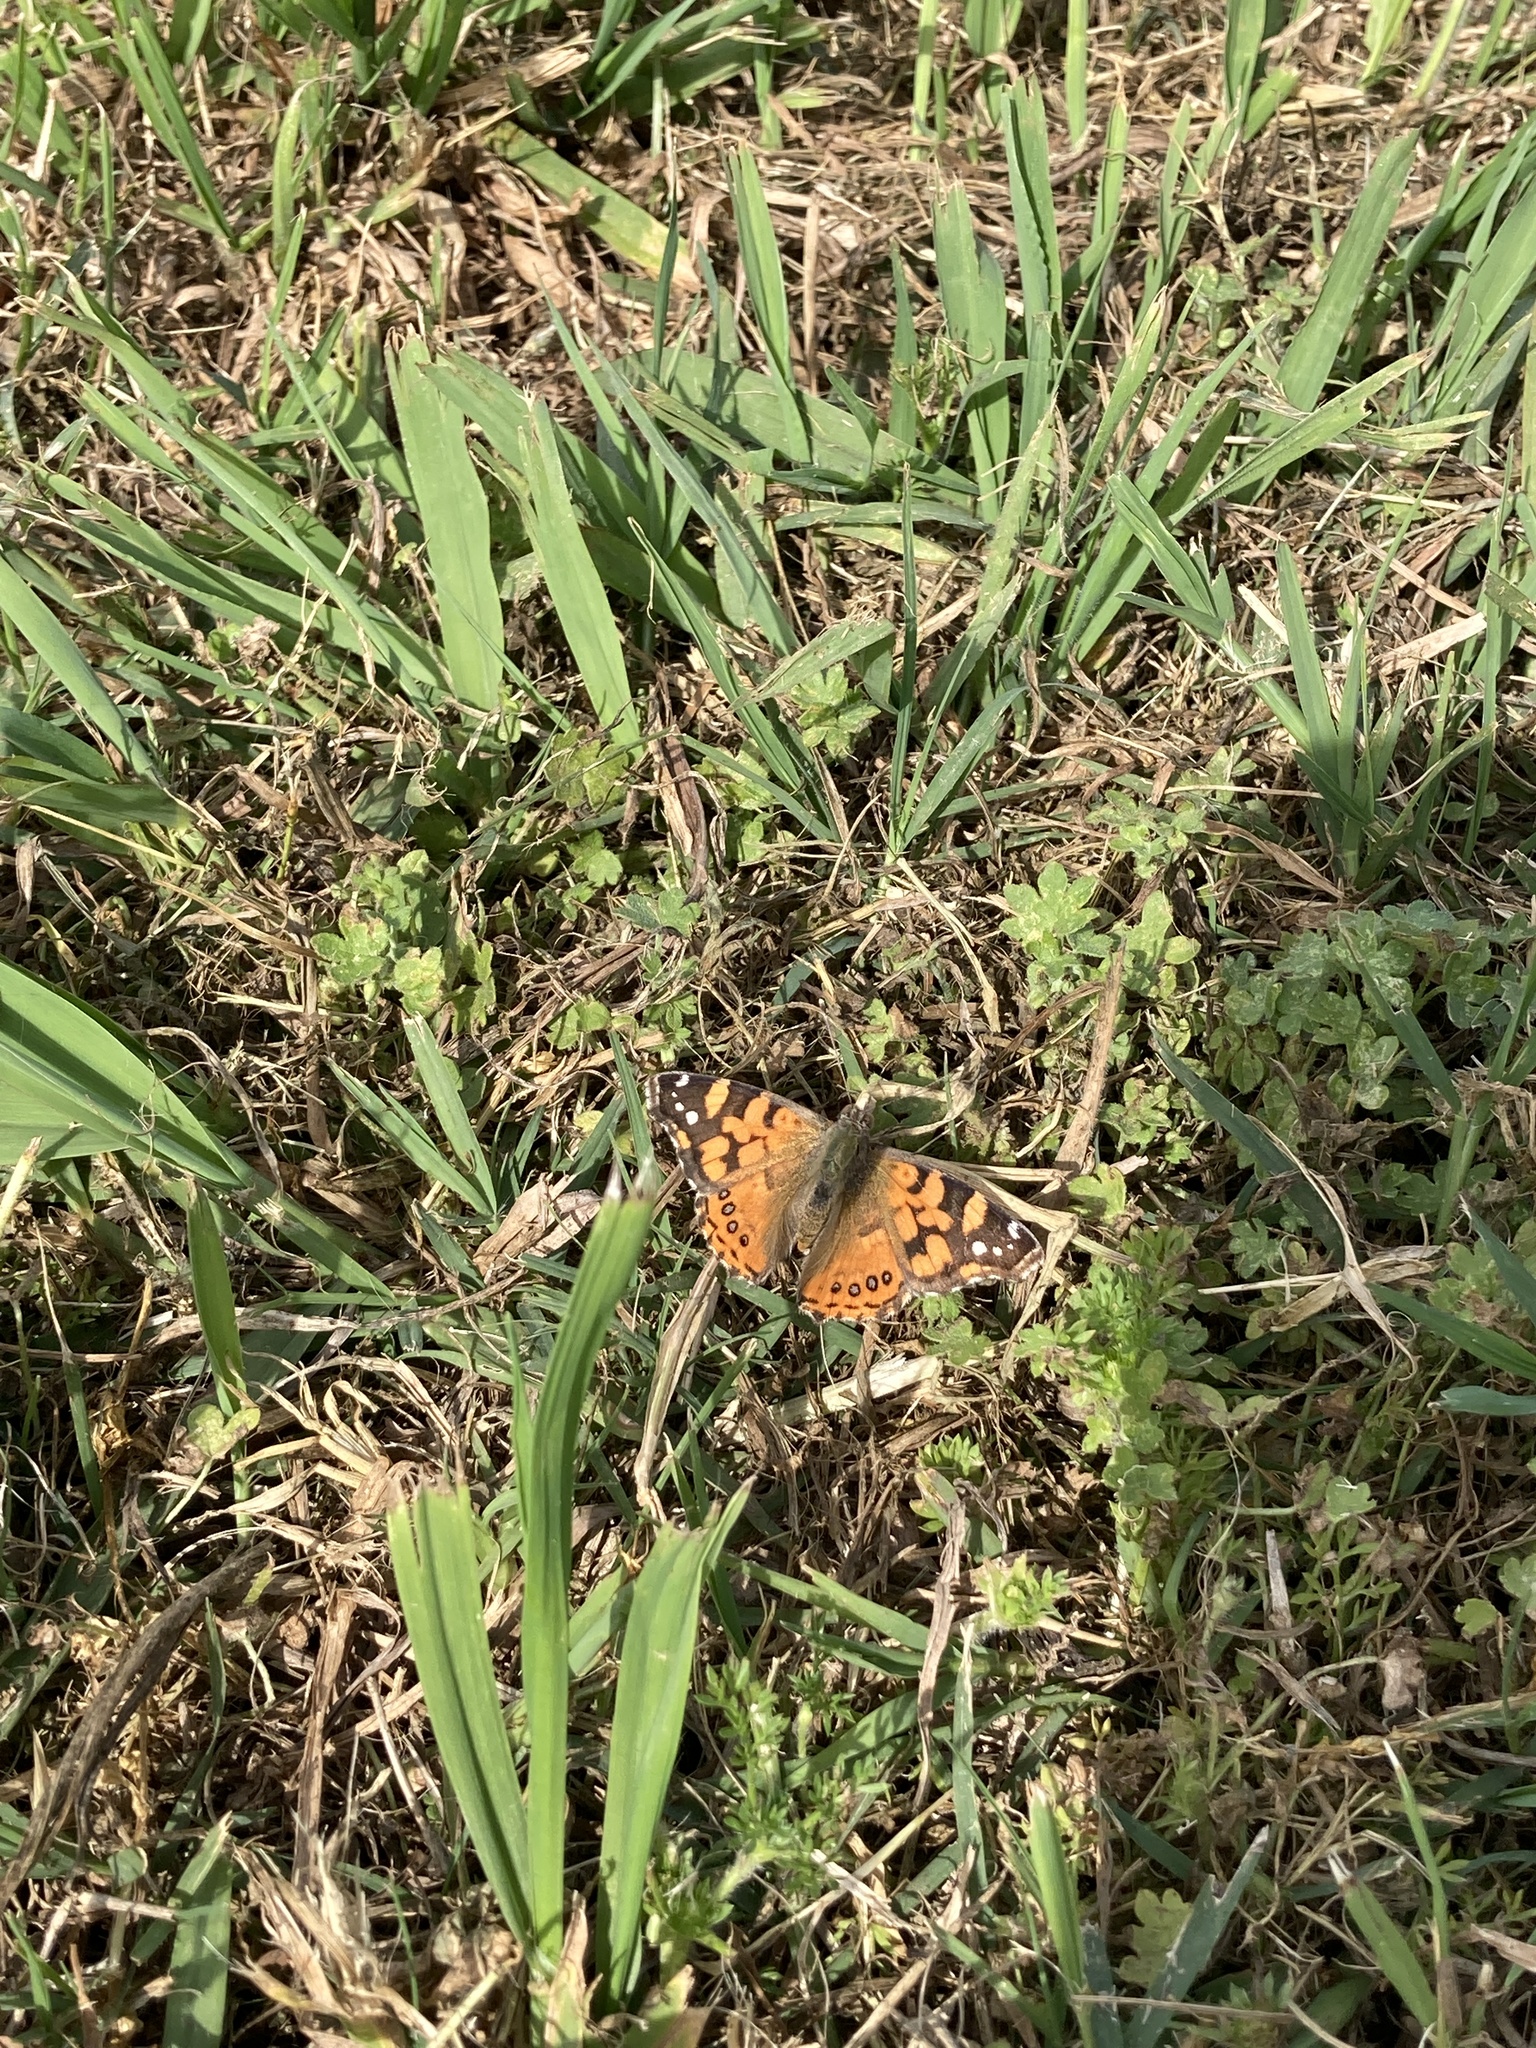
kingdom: Animalia
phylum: Arthropoda
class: Insecta
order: Lepidoptera
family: Nymphalidae
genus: Vanessa
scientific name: Vanessa carye
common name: Subtropical lady
